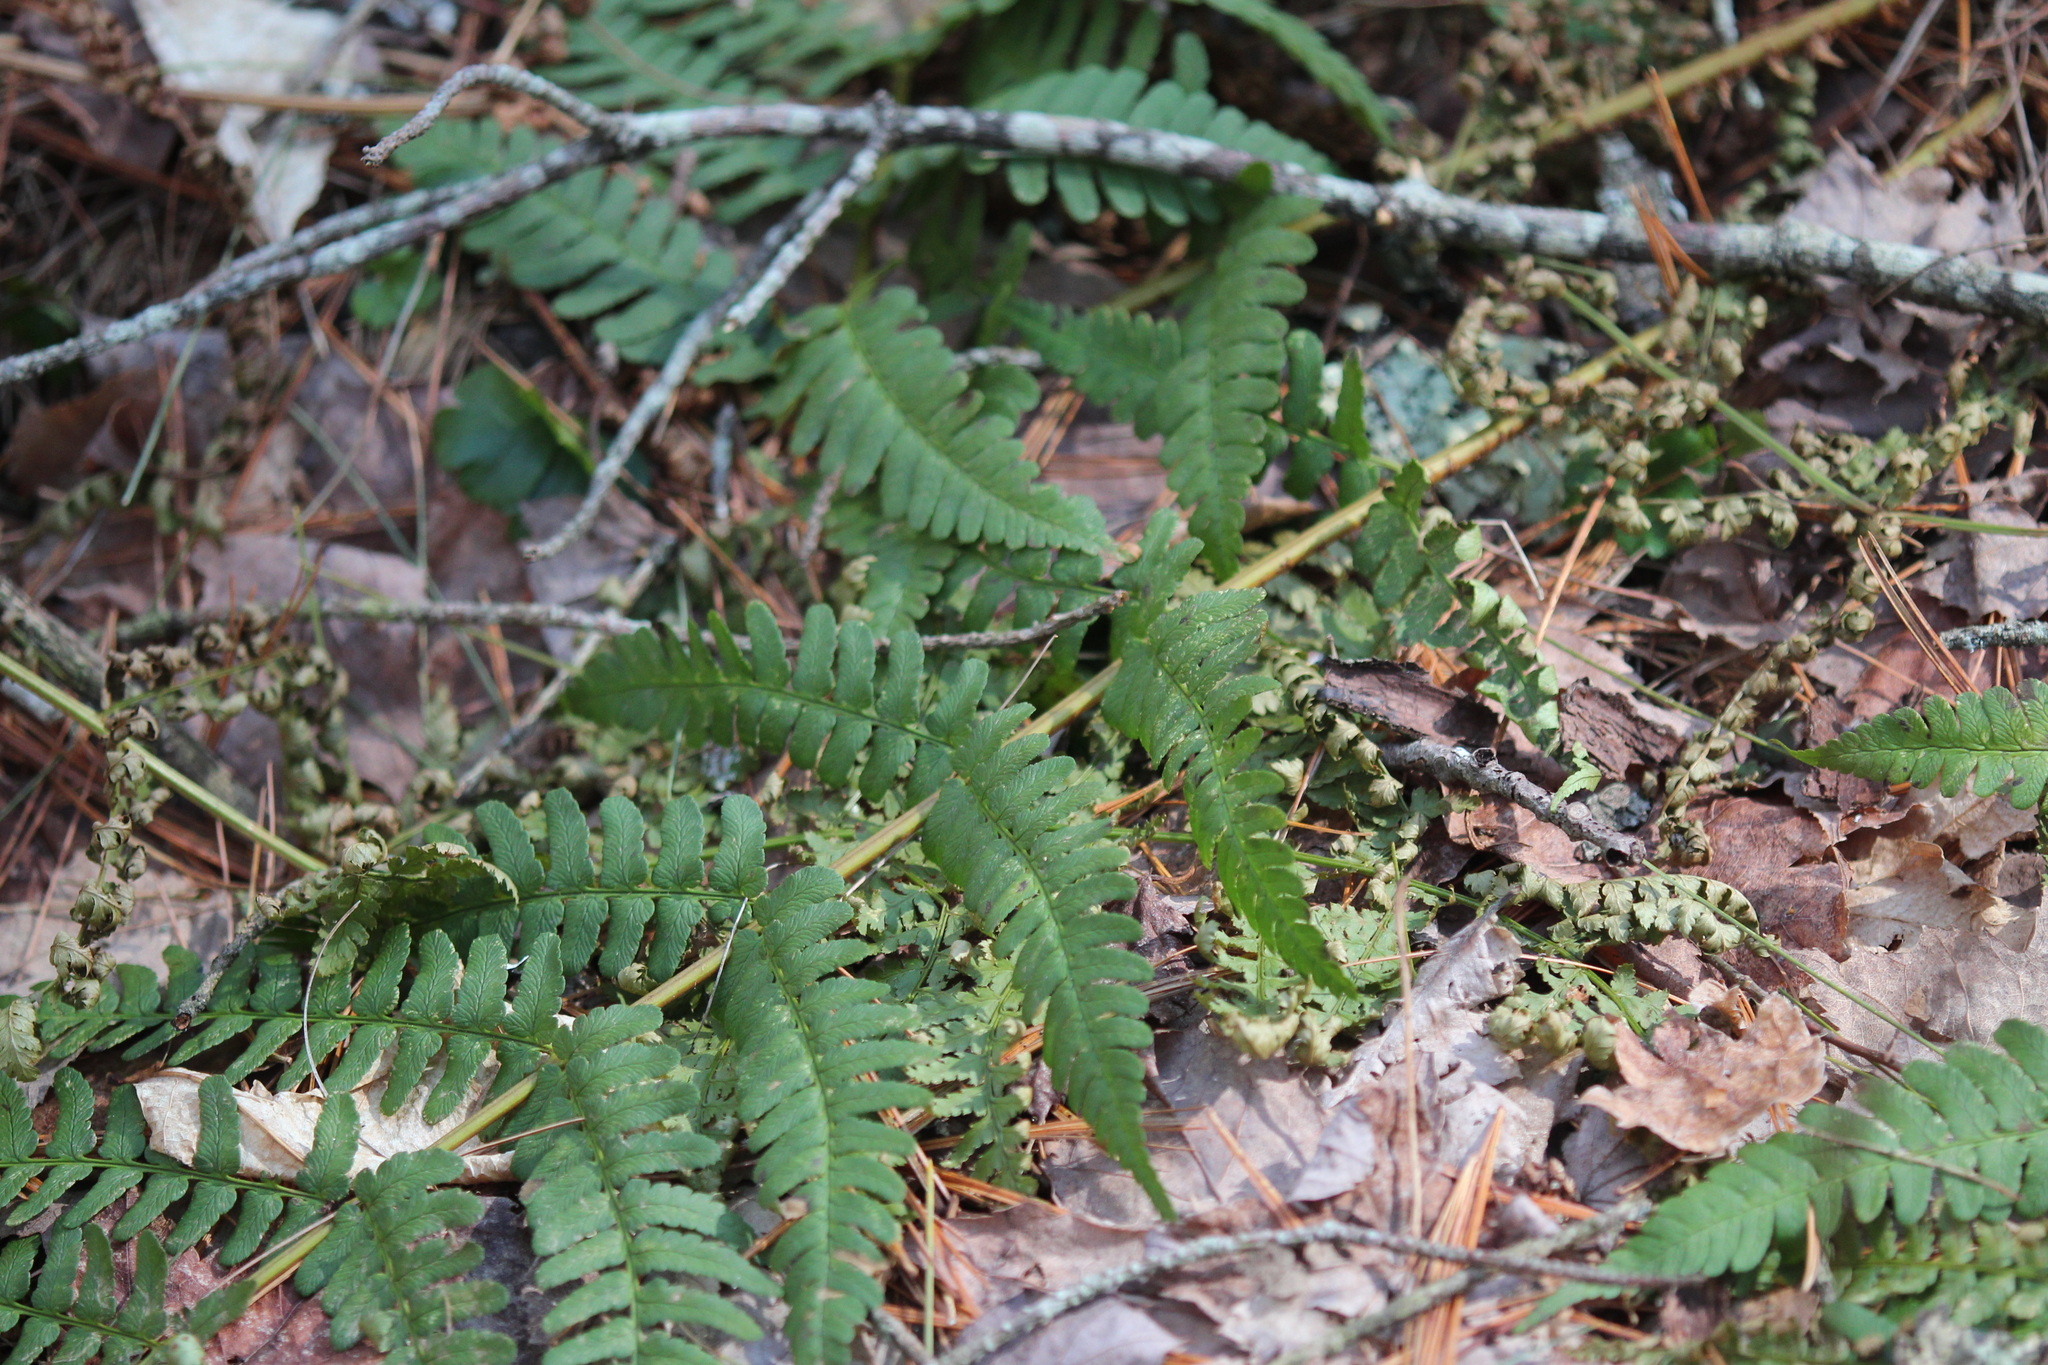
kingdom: Plantae
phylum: Tracheophyta
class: Polypodiopsida
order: Polypodiales
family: Dryopteridaceae
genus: Dryopteris
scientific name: Dryopteris marginalis
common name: Marginal wood fern
